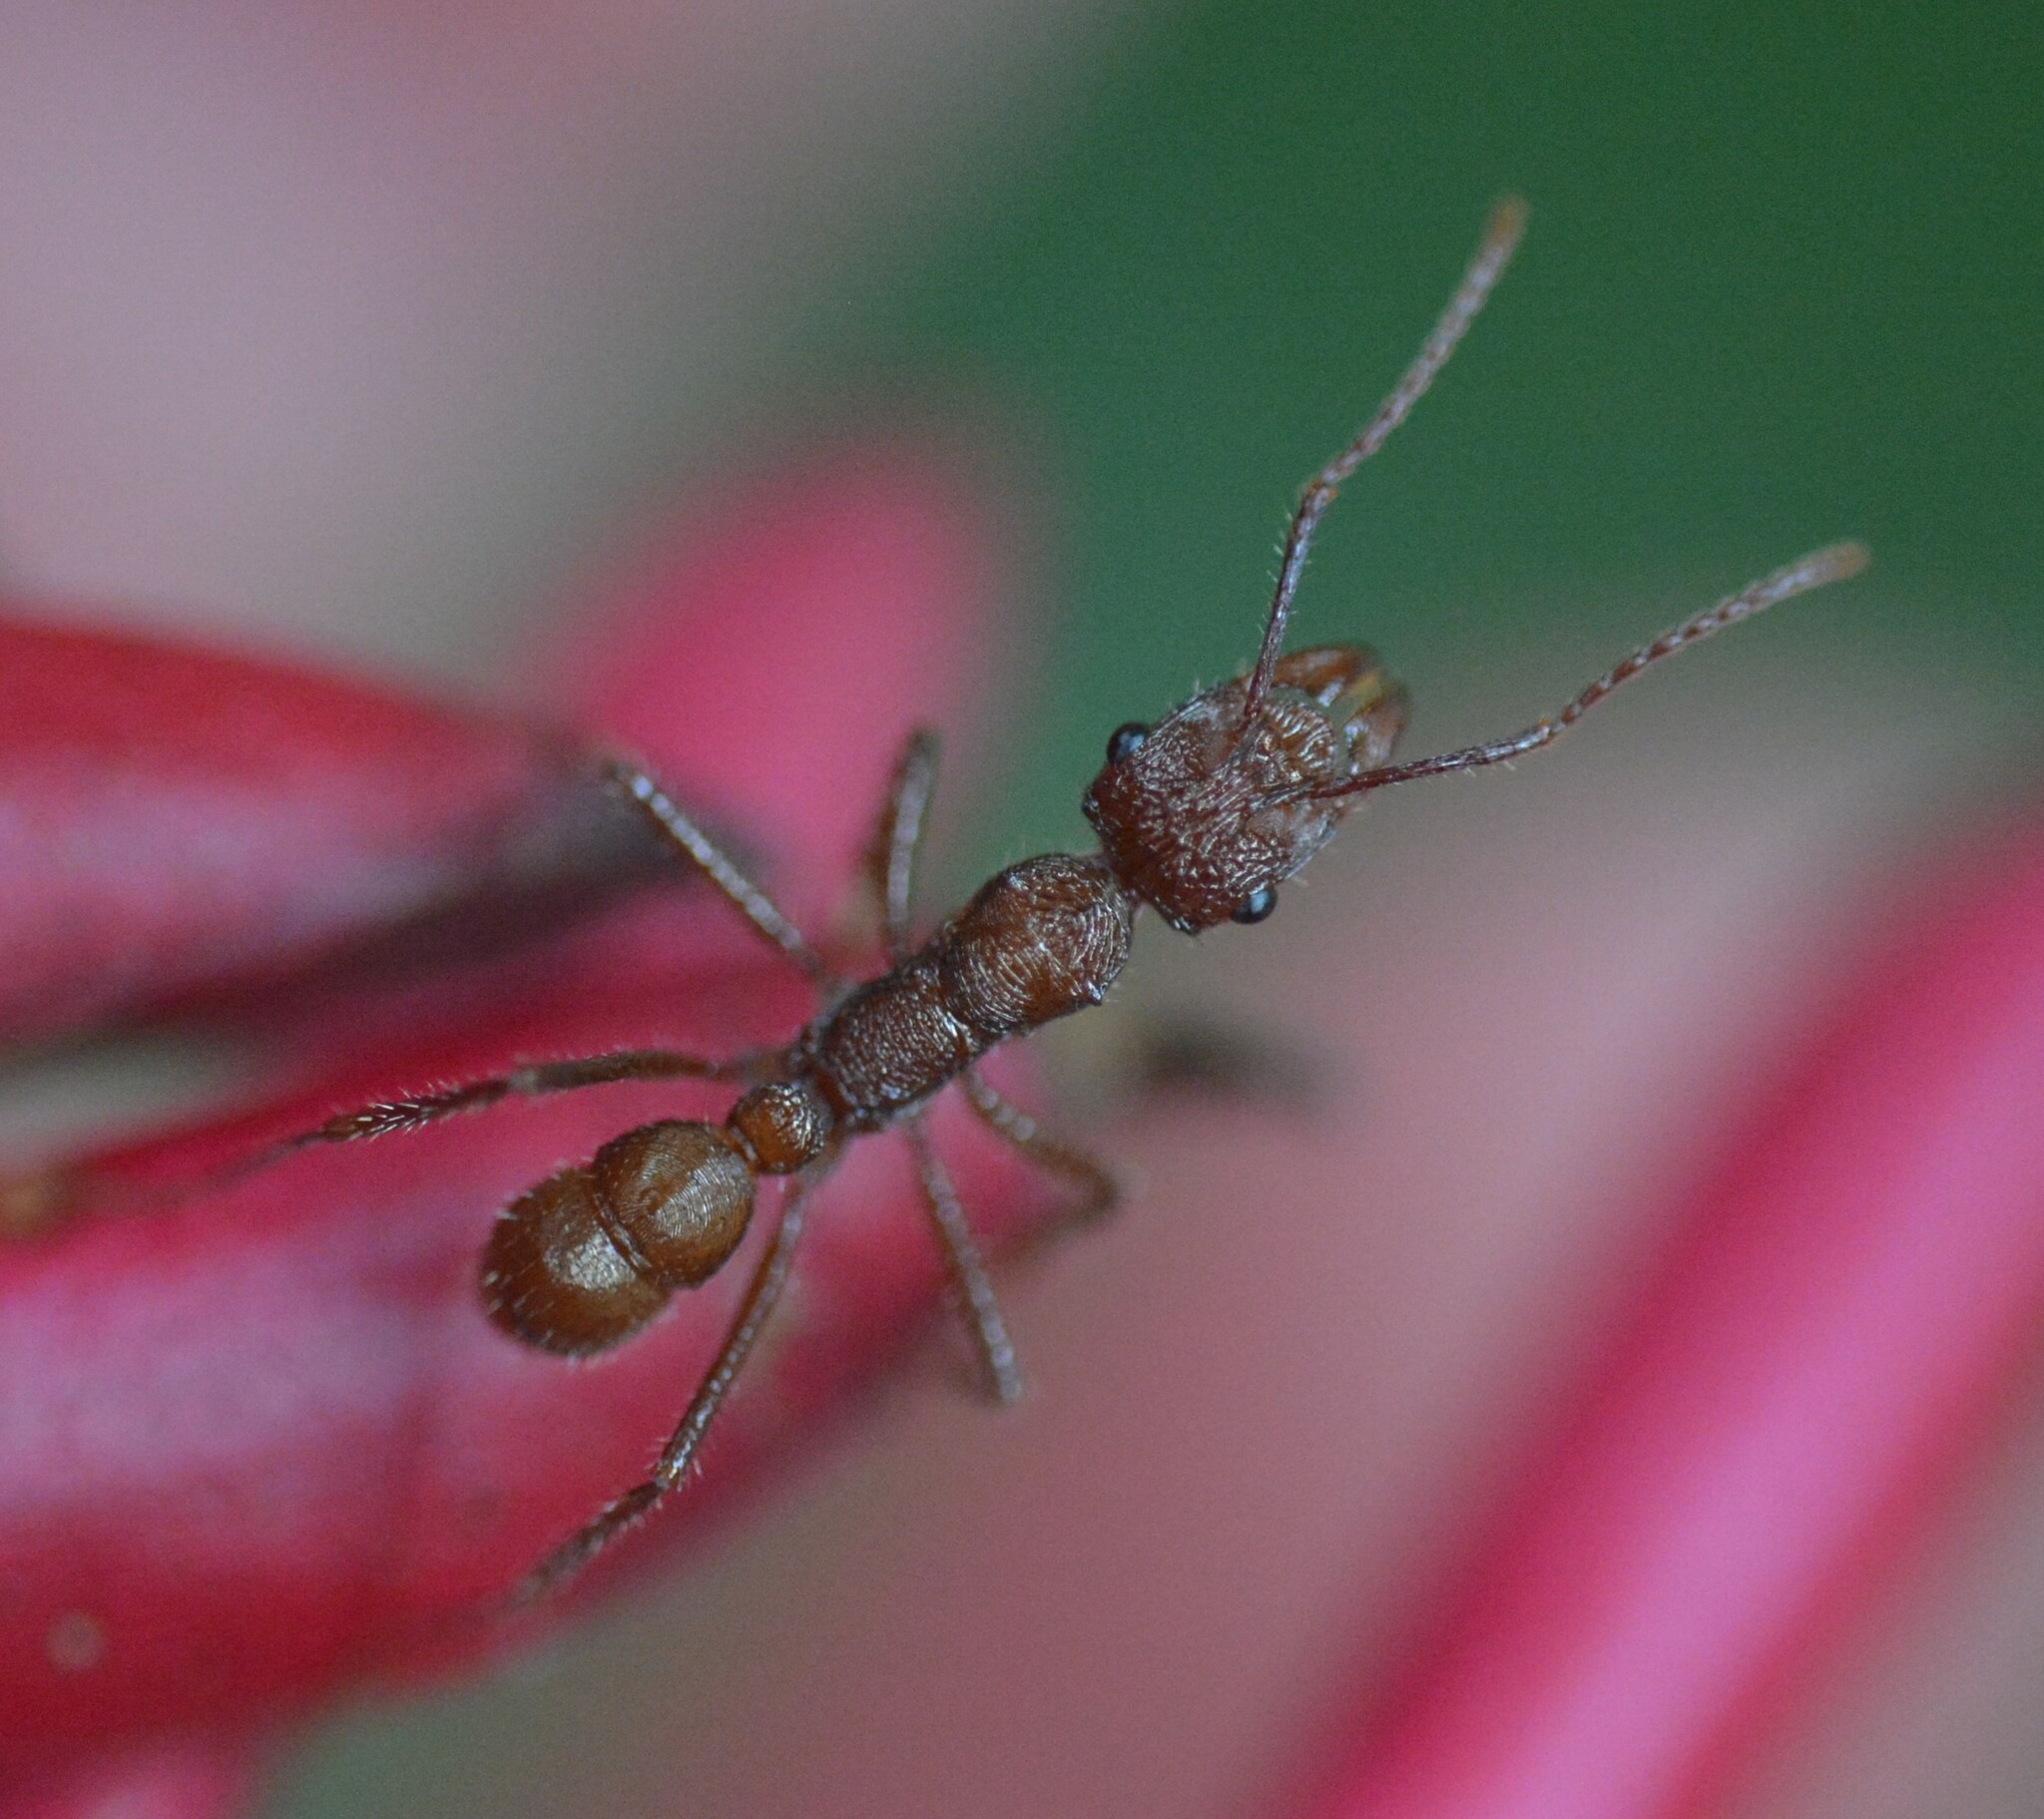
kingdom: Animalia
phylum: Arthropoda
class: Insecta
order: Hymenoptera
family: Formicidae
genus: Ectatomma
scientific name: Ectatomma tuberculatum
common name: Ant
